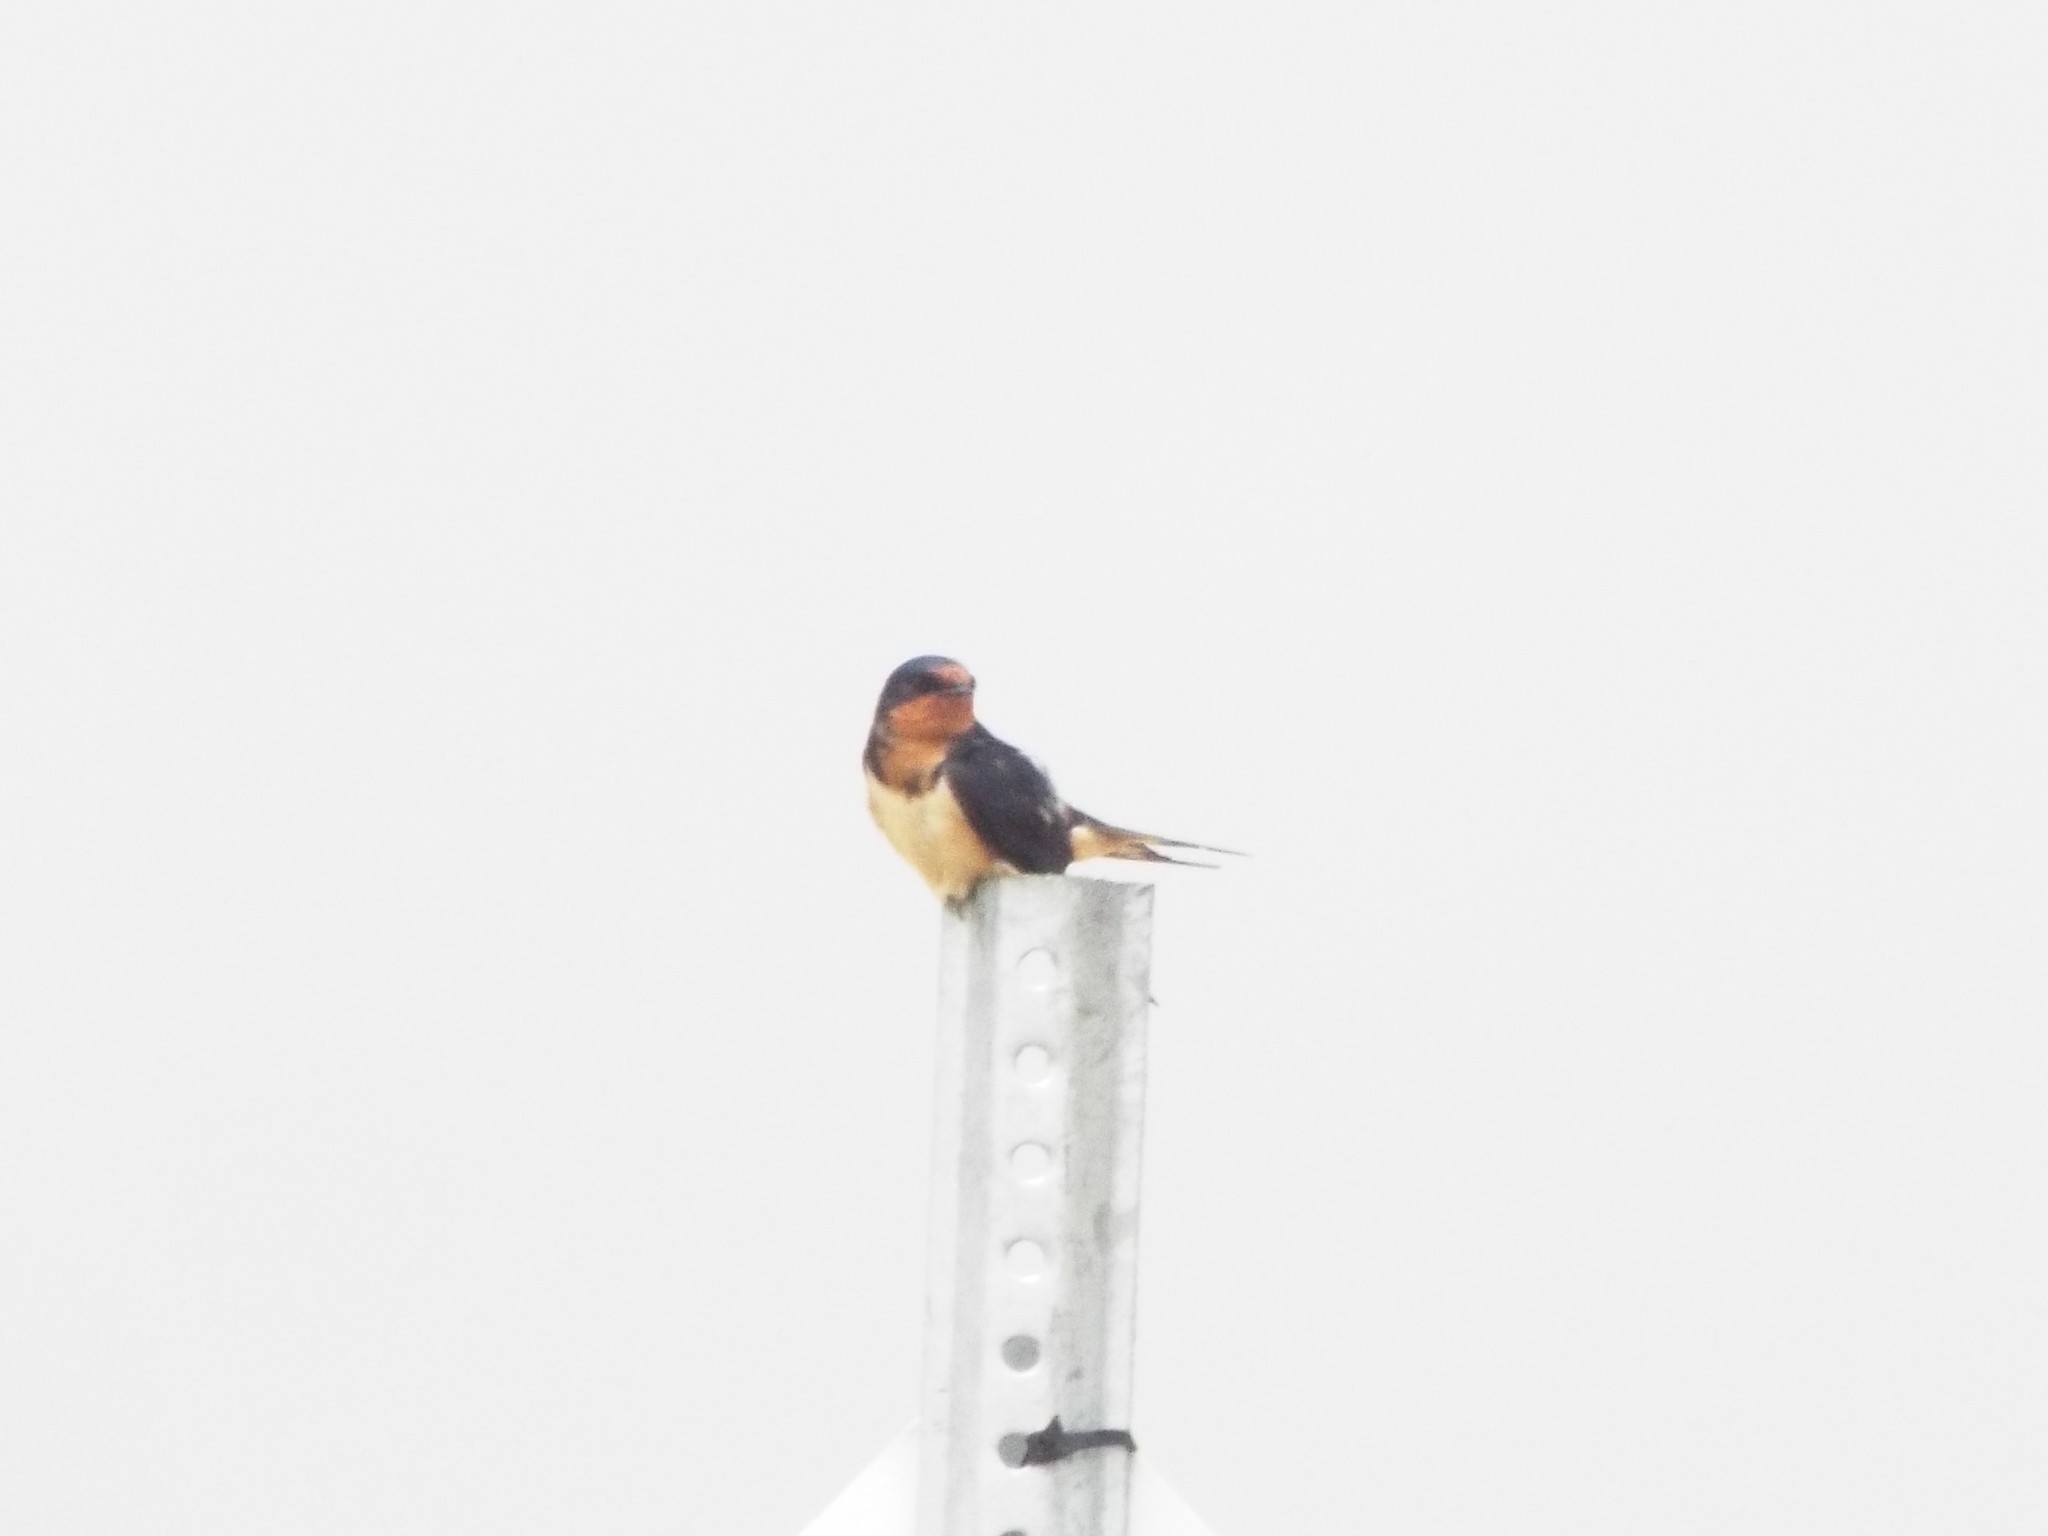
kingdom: Animalia
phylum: Chordata
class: Aves
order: Passeriformes
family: Hirundinidae
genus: Hirundo
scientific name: Hirundo rustica
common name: Barn swallow
